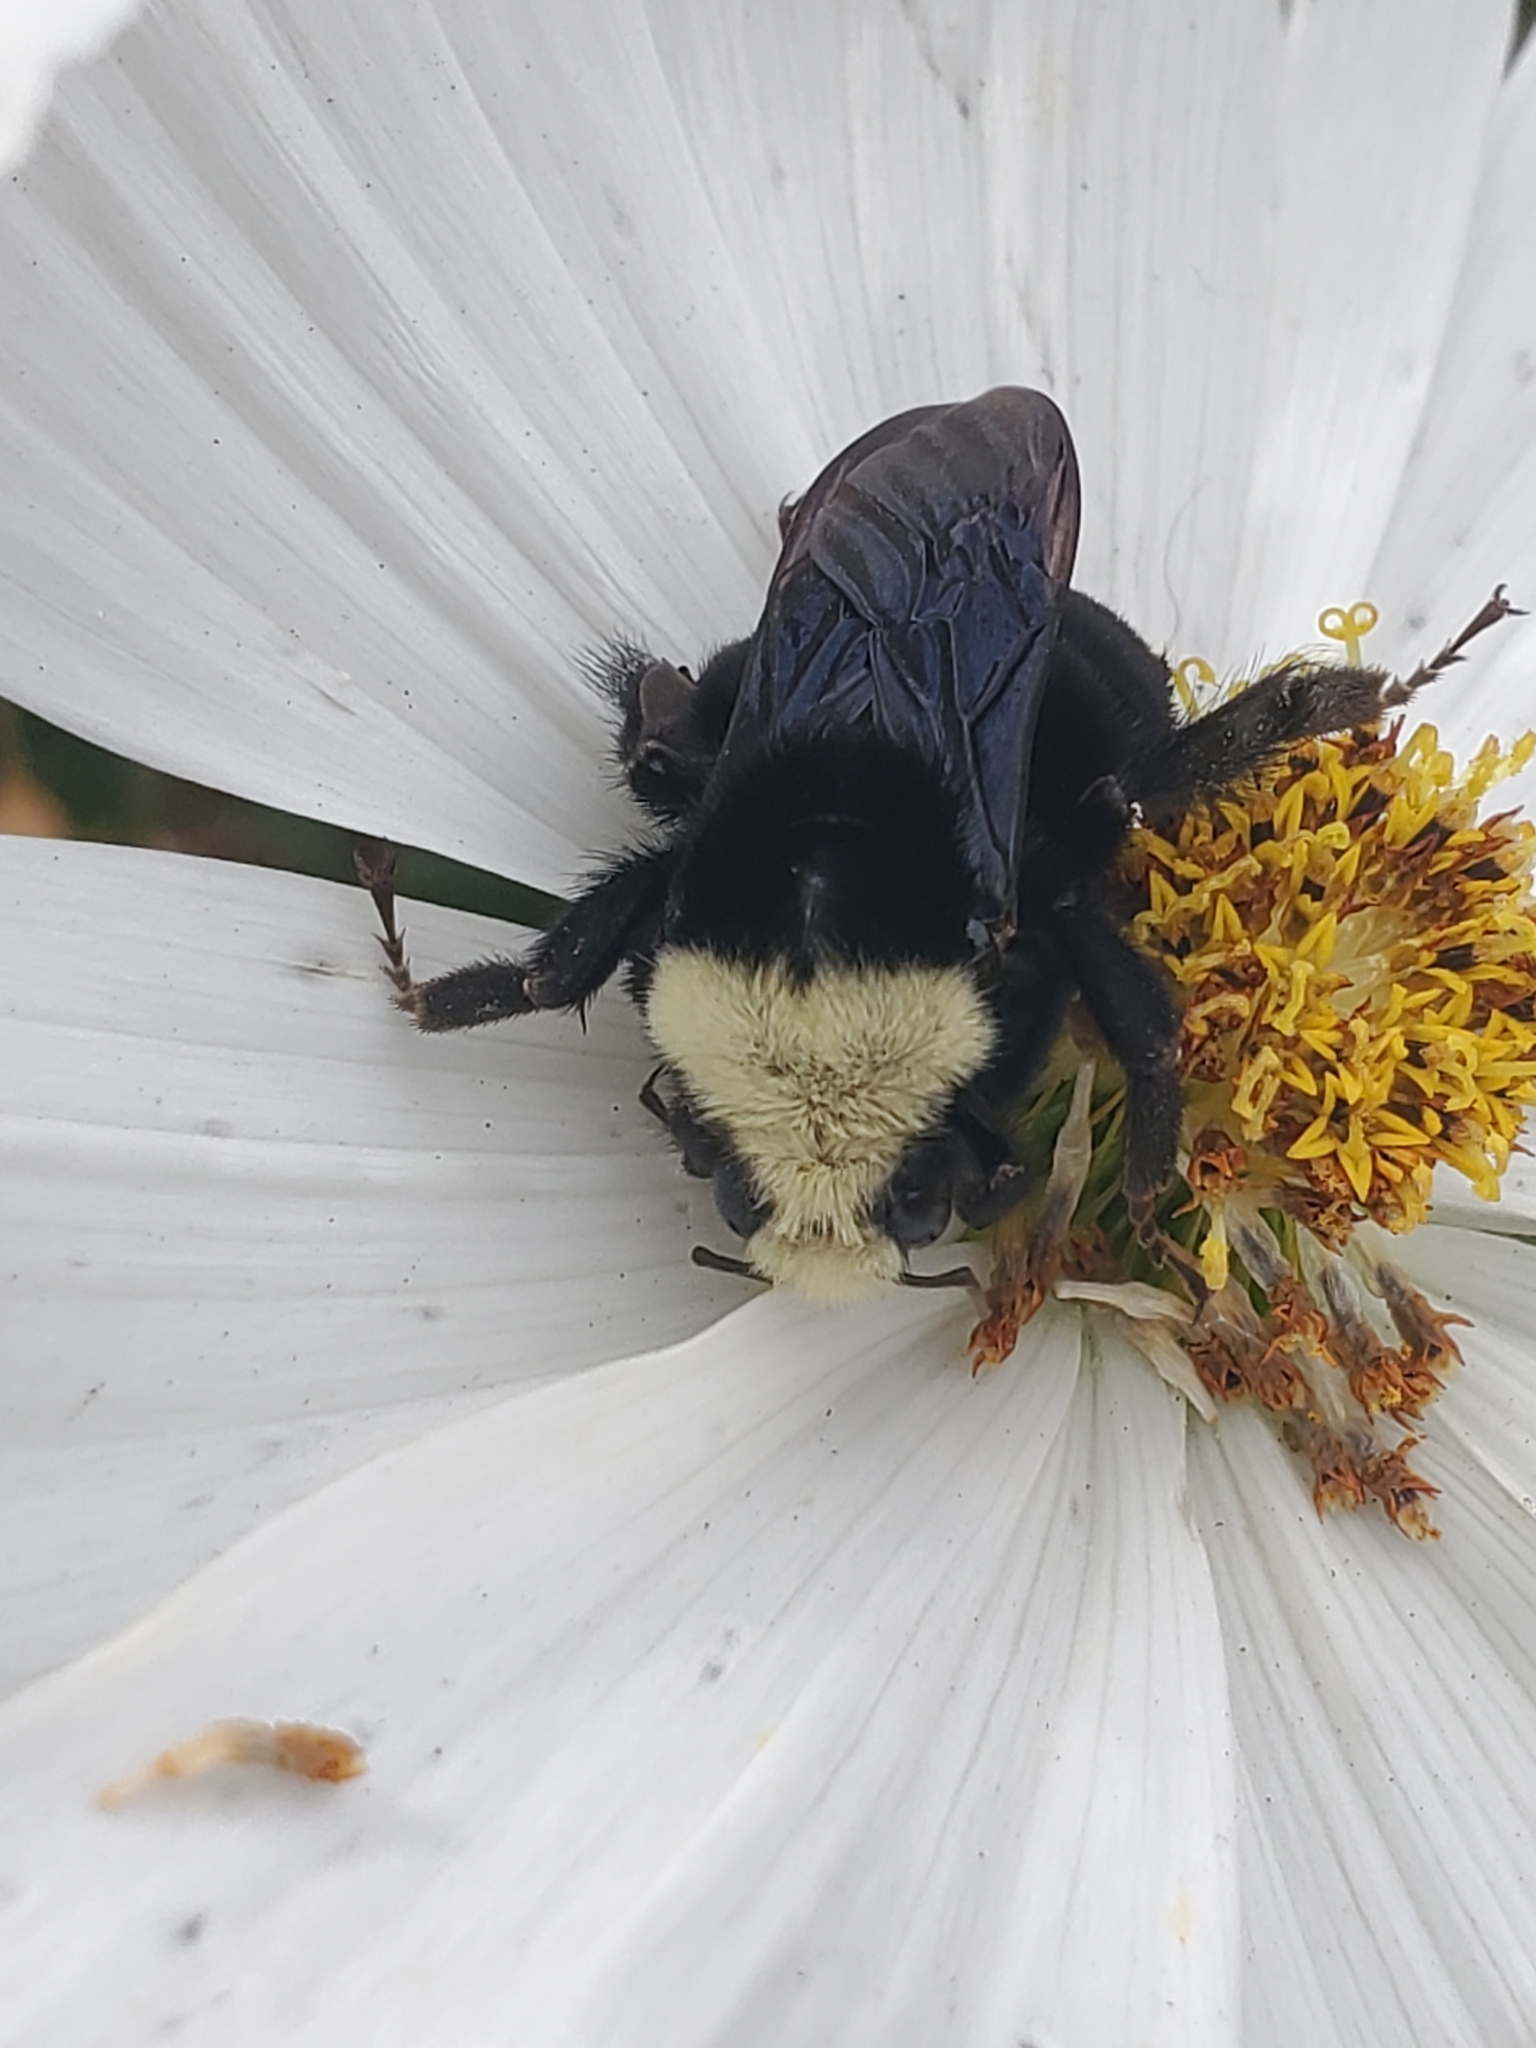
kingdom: Animalia
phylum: Arthropoda
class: Insecta
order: Hymenoptera
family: Apidae
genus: Bombus
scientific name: Bombus vosnesenskii
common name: Vosnesensky bumble bee
